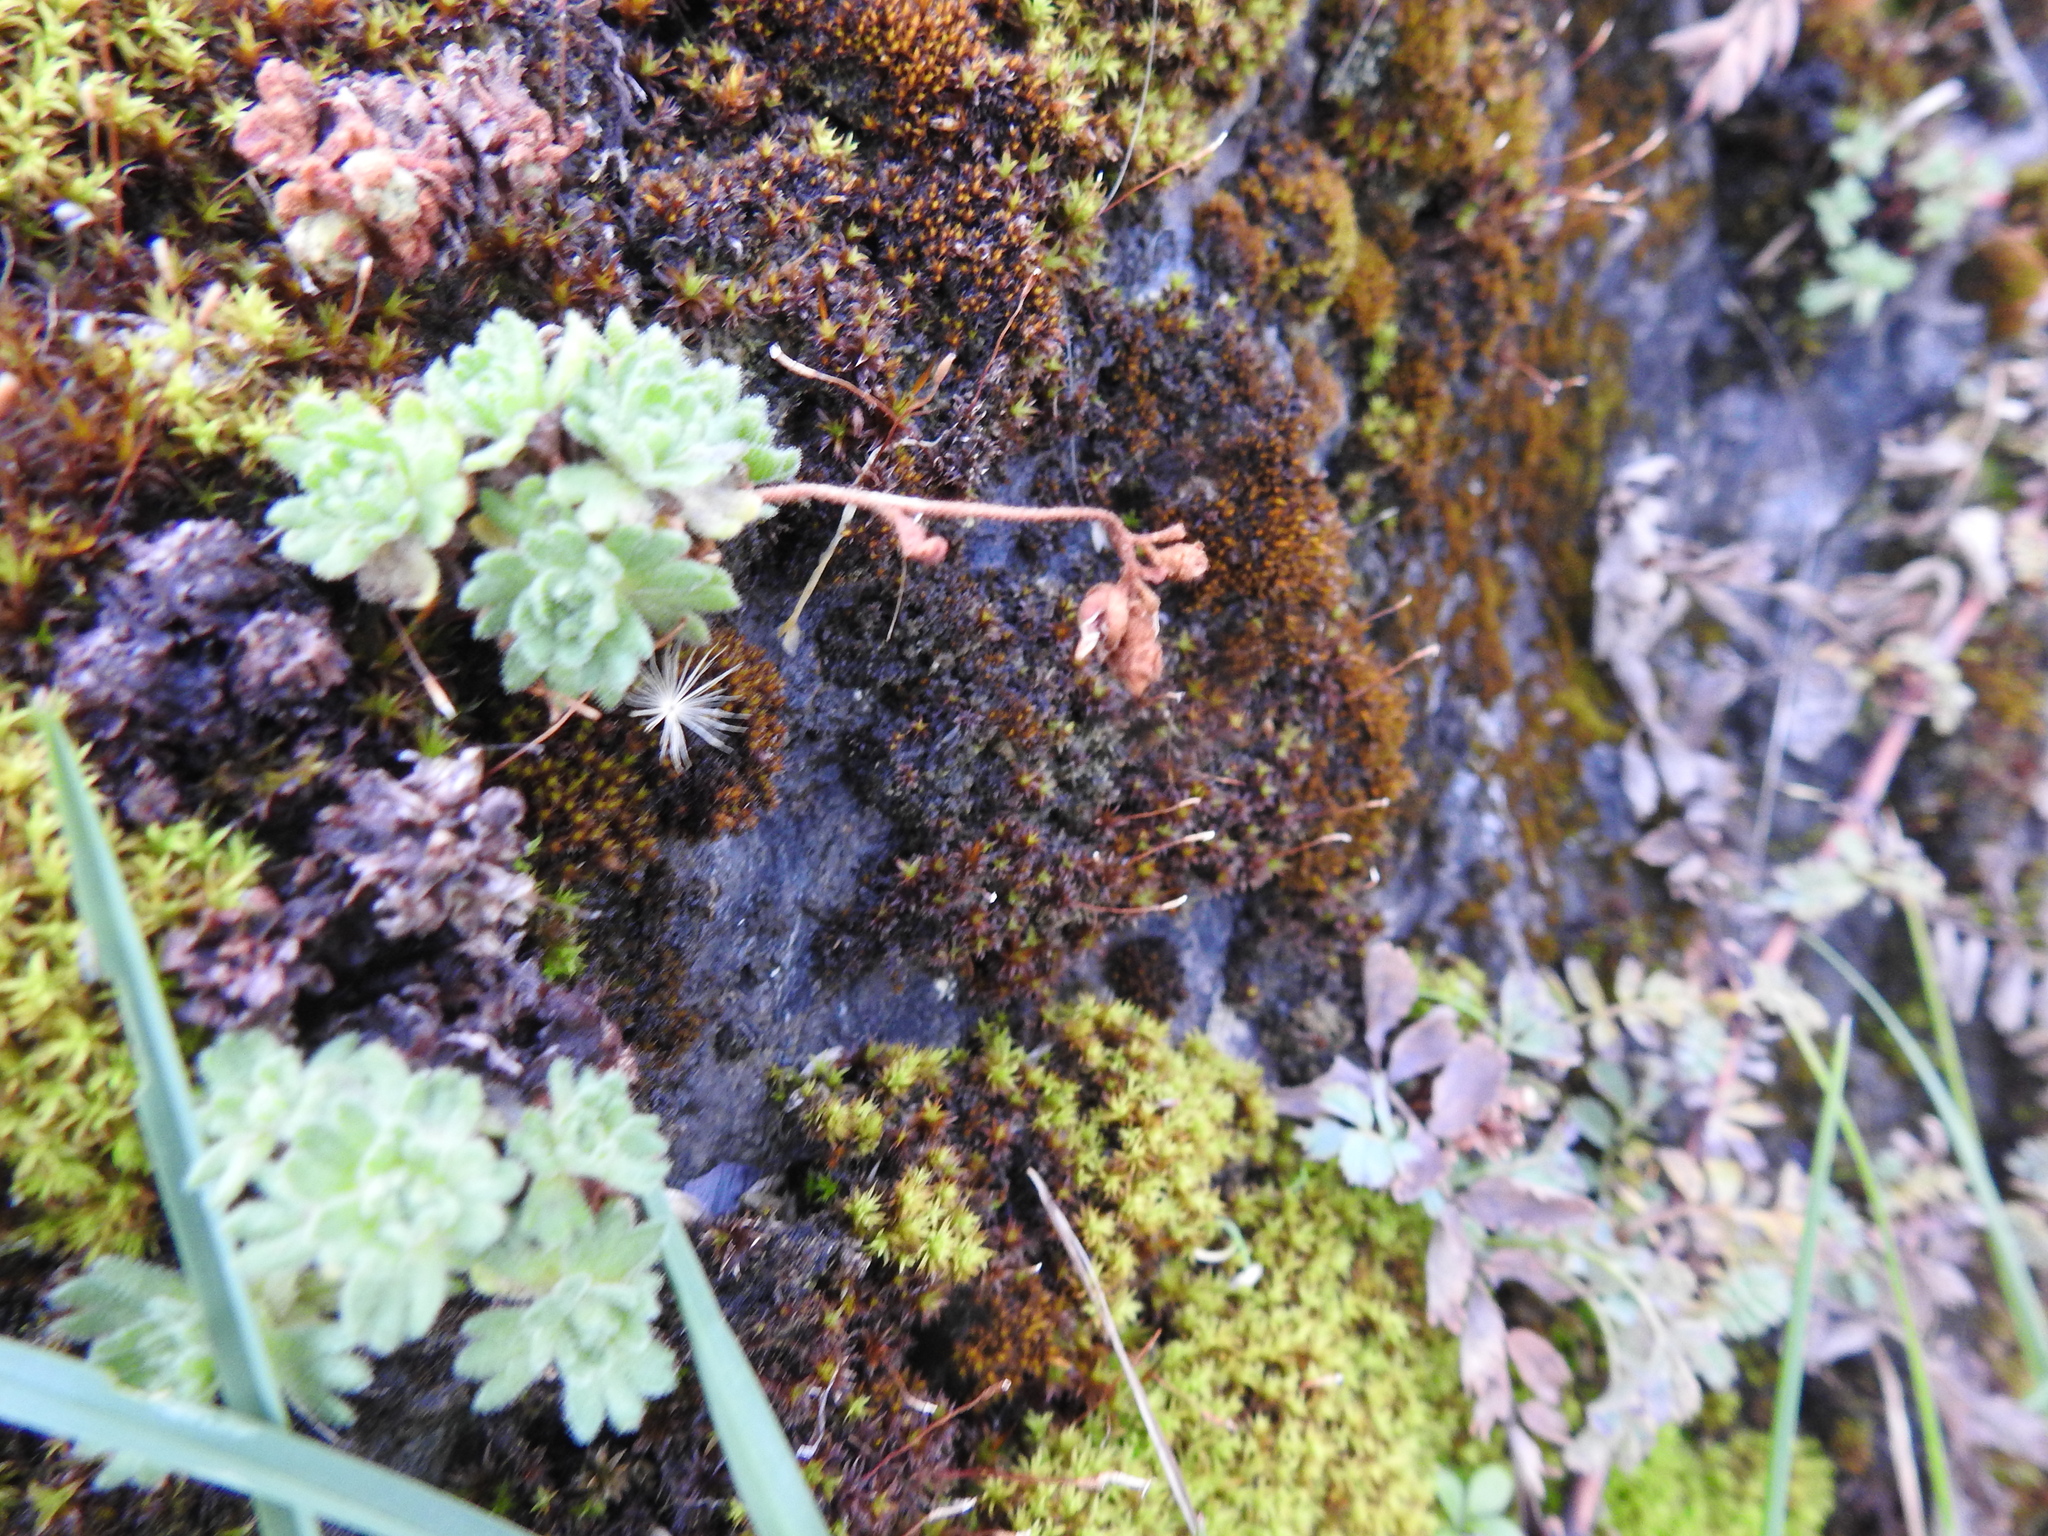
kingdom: Plantae
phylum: Tracheophyta
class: Magnoliopsida
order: Saxifragales
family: Saxifragaceae
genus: Saxifraga
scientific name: Saxifraga magellanica
